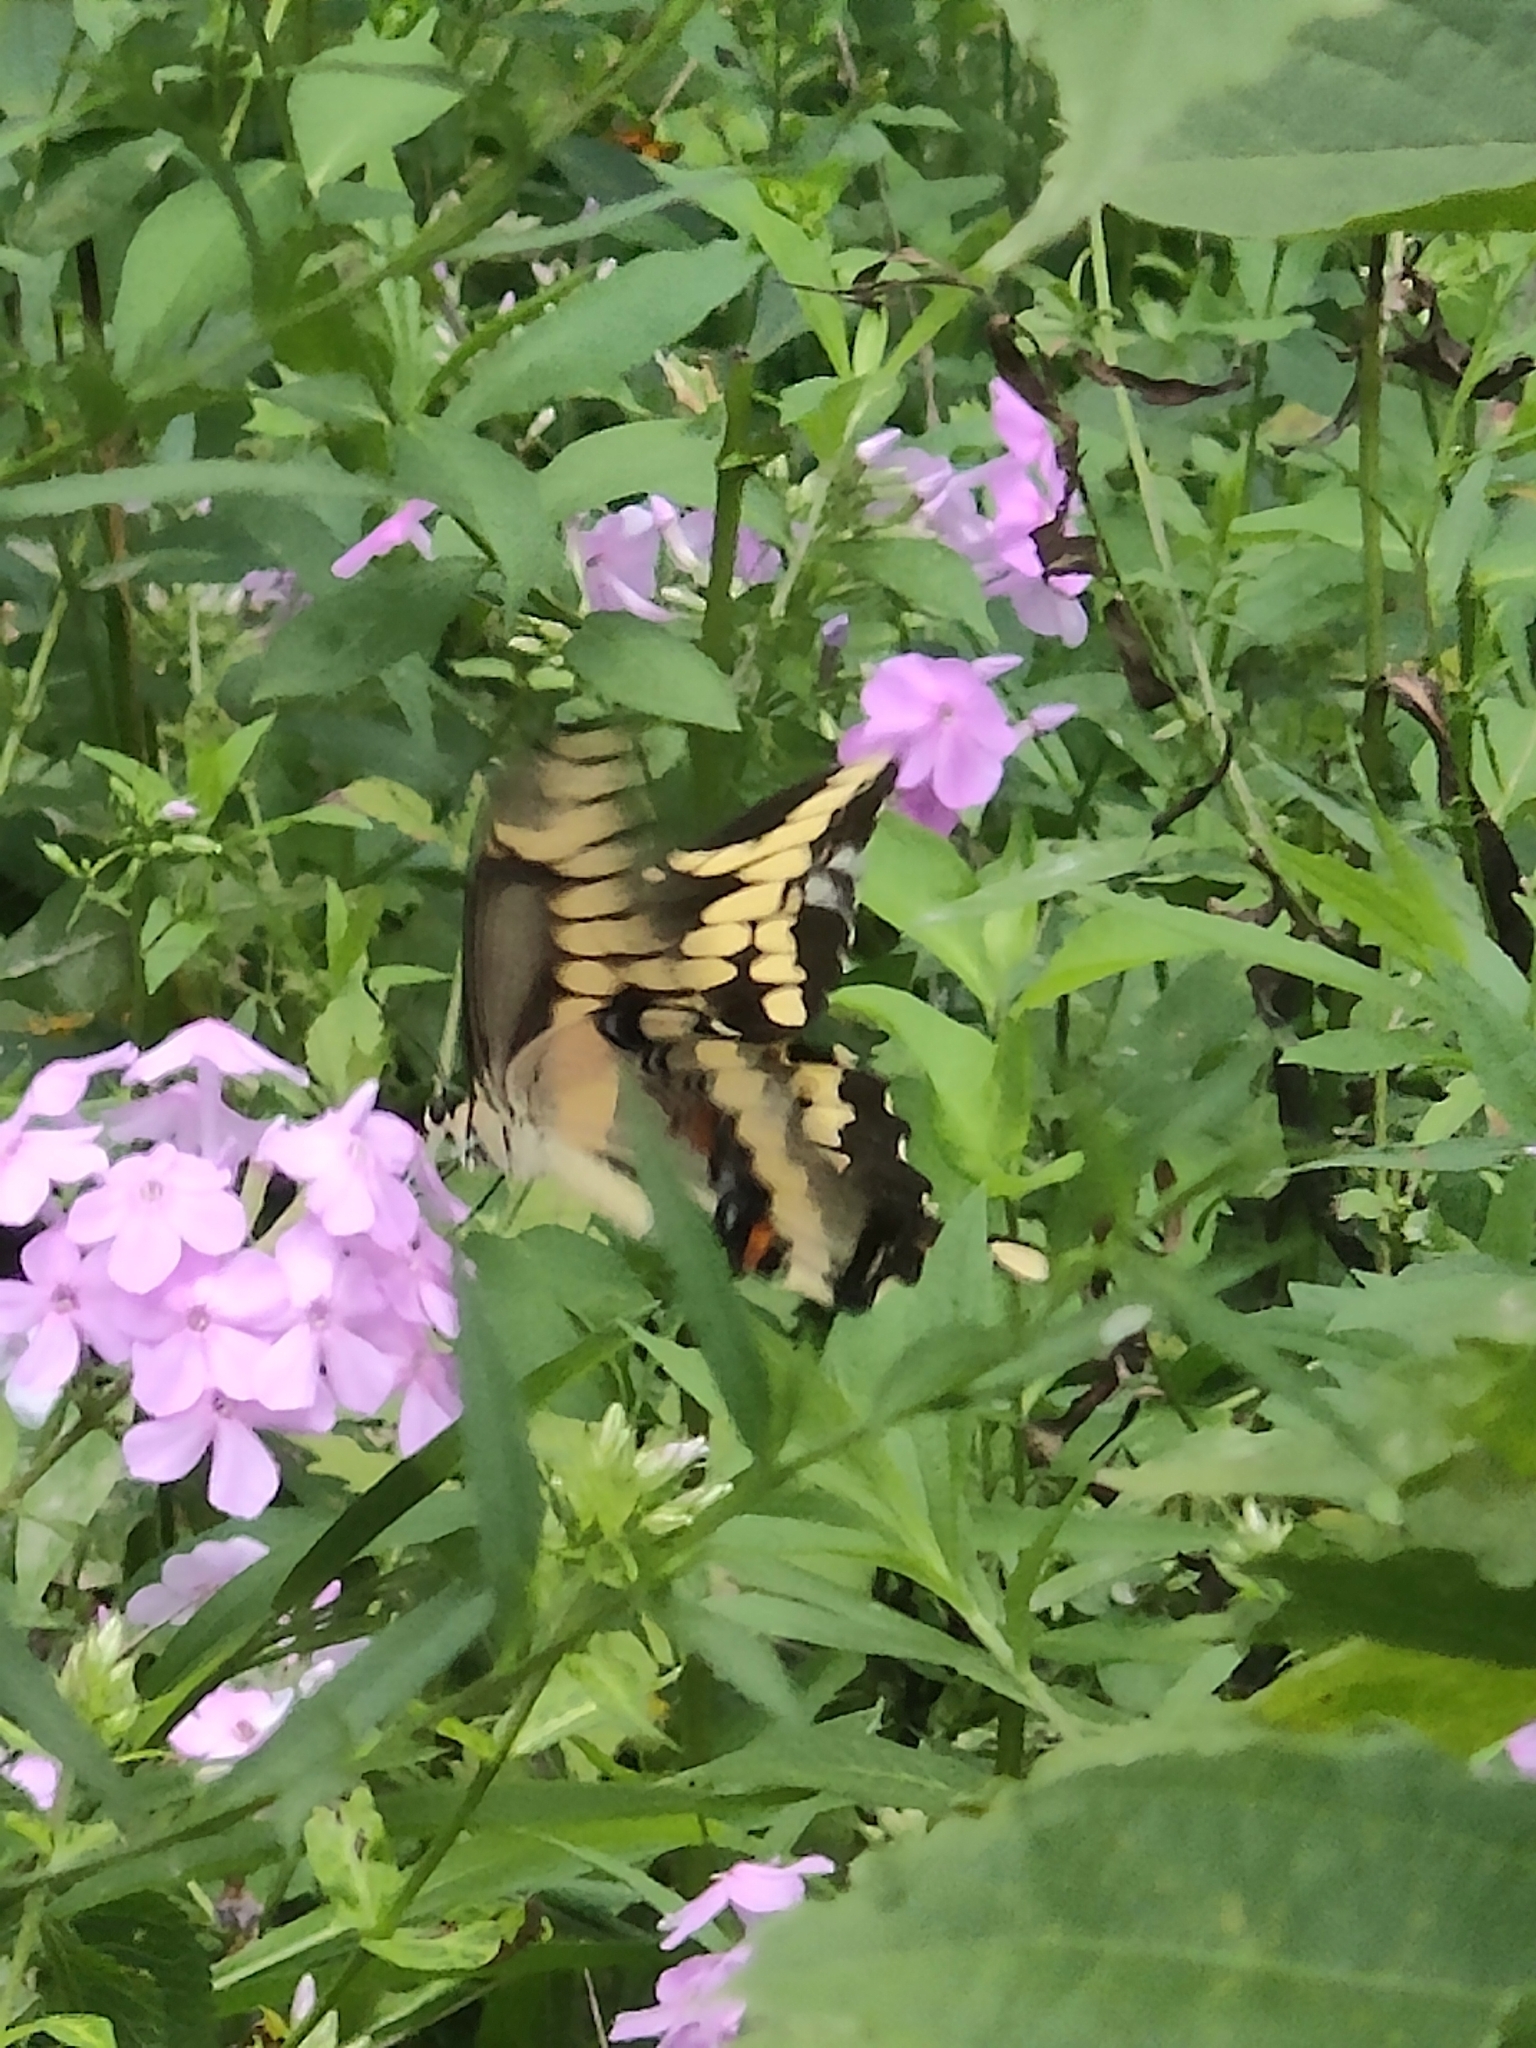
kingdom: Animalia
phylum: Arthropoda
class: Insecta
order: Lepidoptera
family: Papilionidae
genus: Papilio
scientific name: Papilio cresphontes
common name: Giant swallowtail
